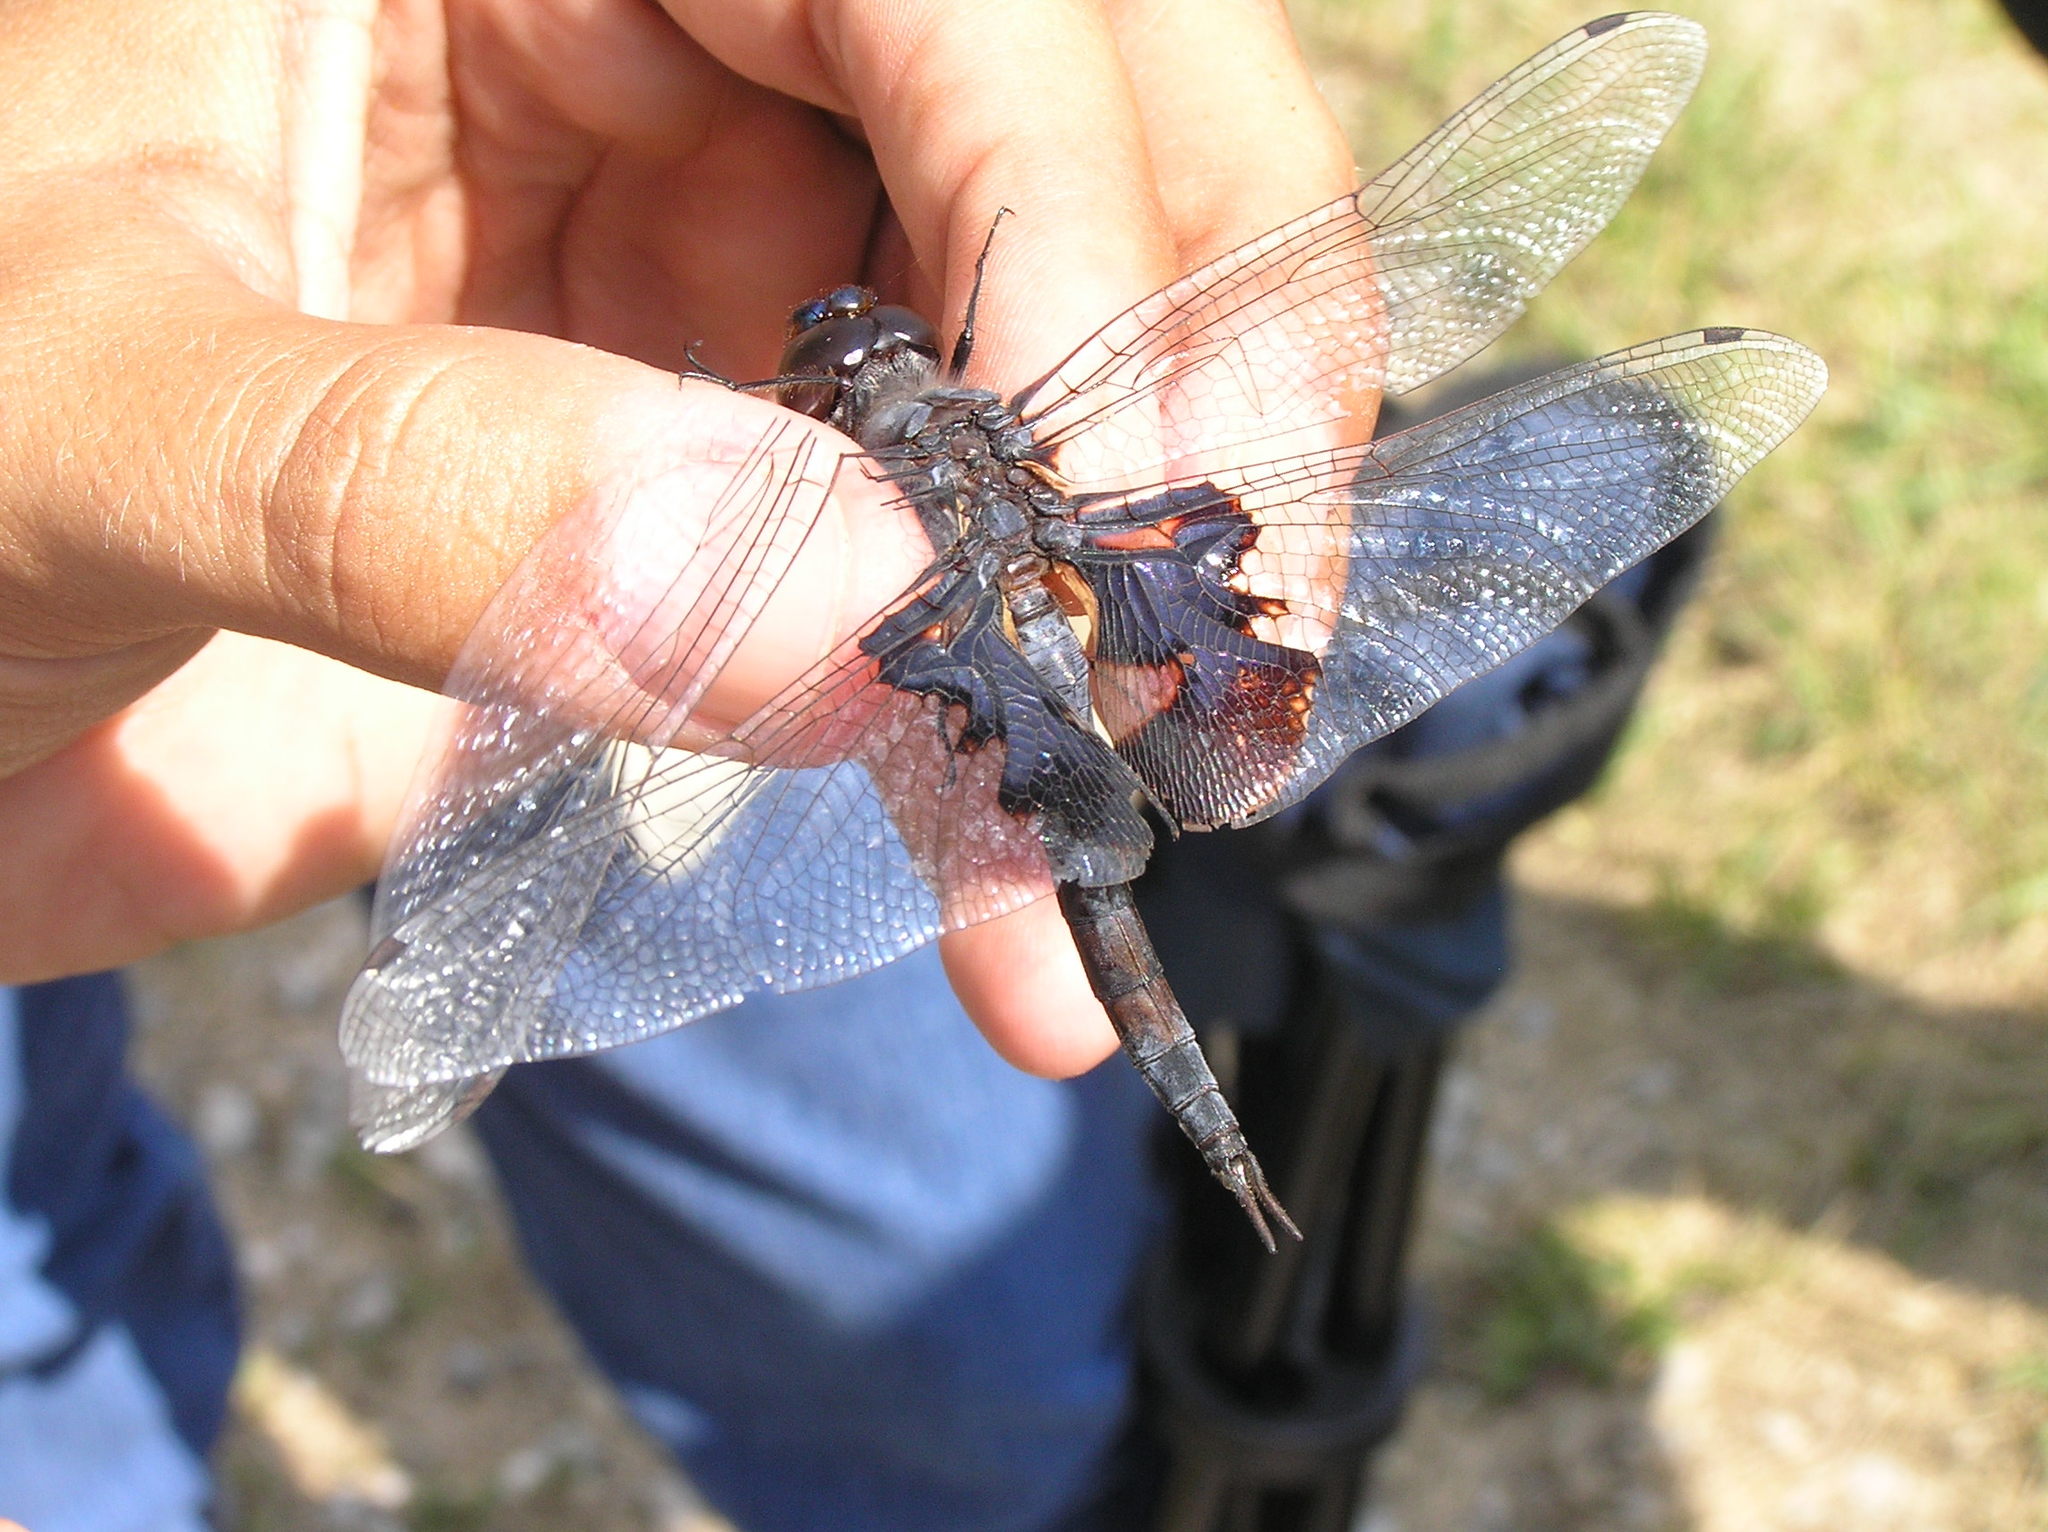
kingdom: Animalia
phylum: Arthropoda
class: Insecta
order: Odonata
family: Libellulidae
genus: Tramea
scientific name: Tramea lacerata
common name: Black saddlebags
